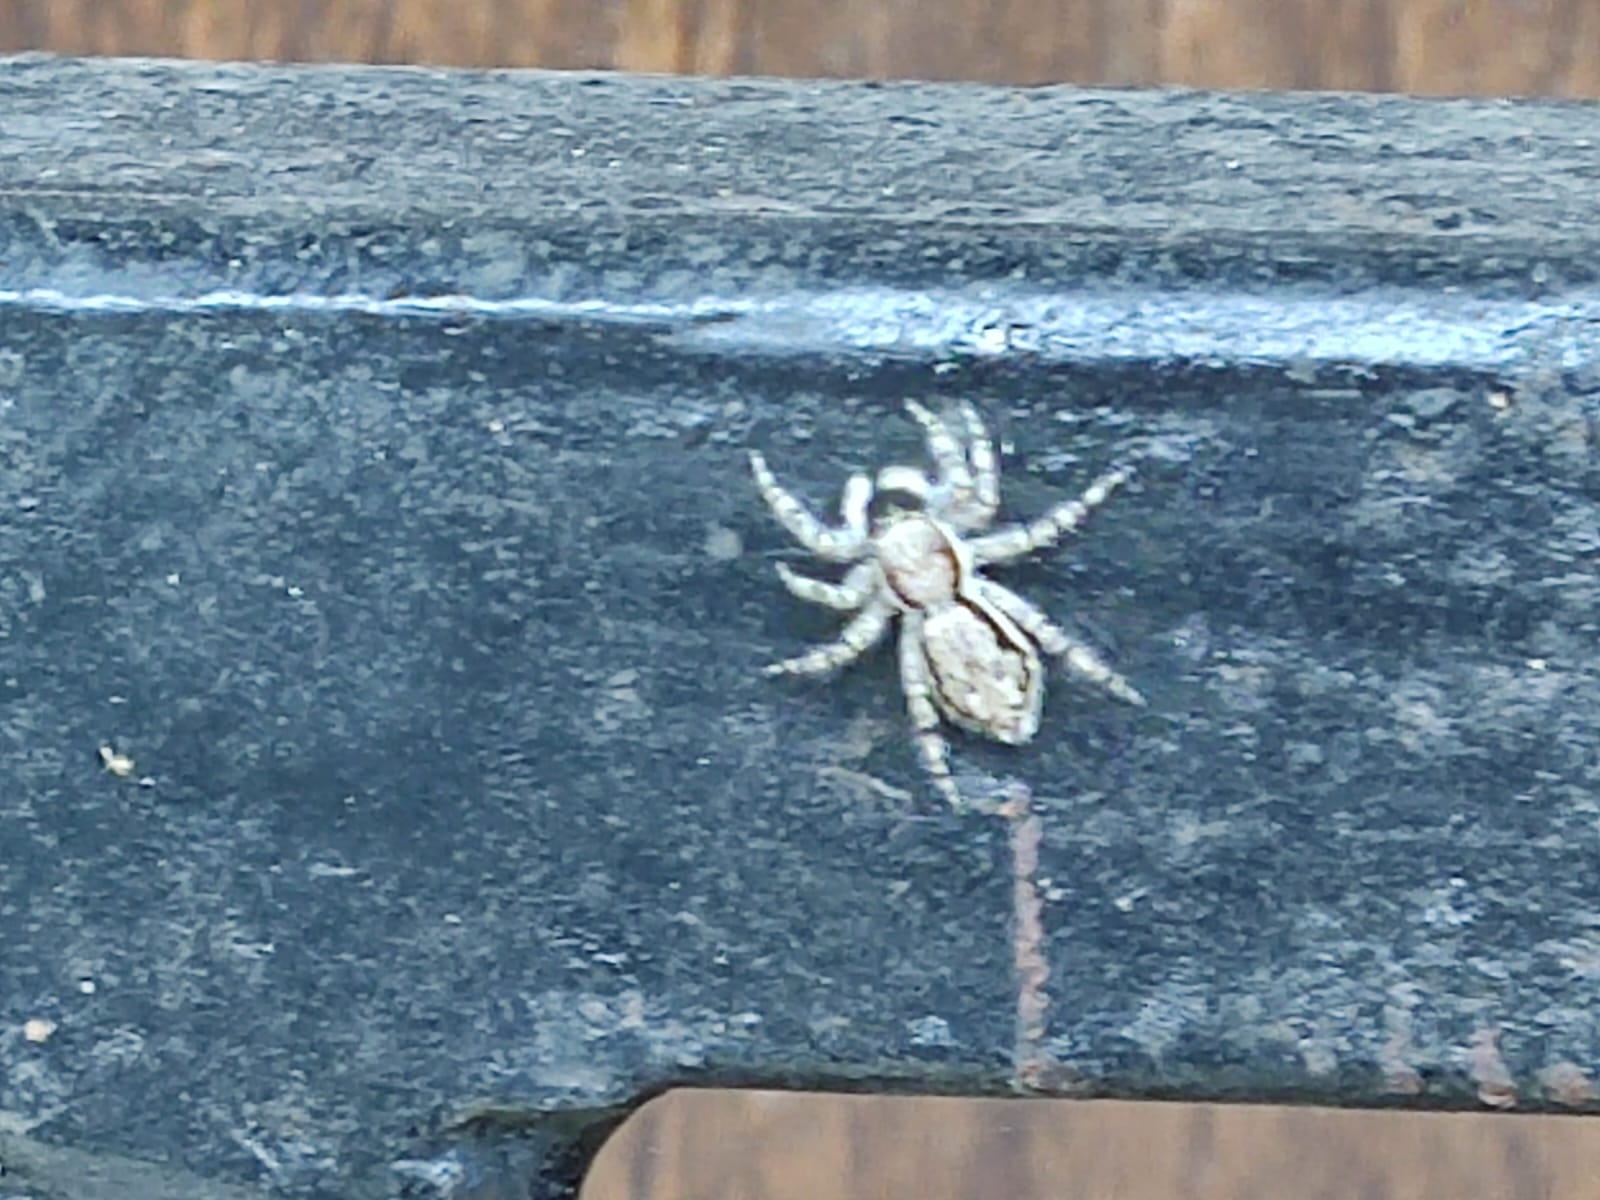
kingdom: Animalia
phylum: Arthropoda
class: Arachnida
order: Araneae
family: Salticidae
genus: Menemerus
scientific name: Menemerus bivittatus
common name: Gray wall jumper
